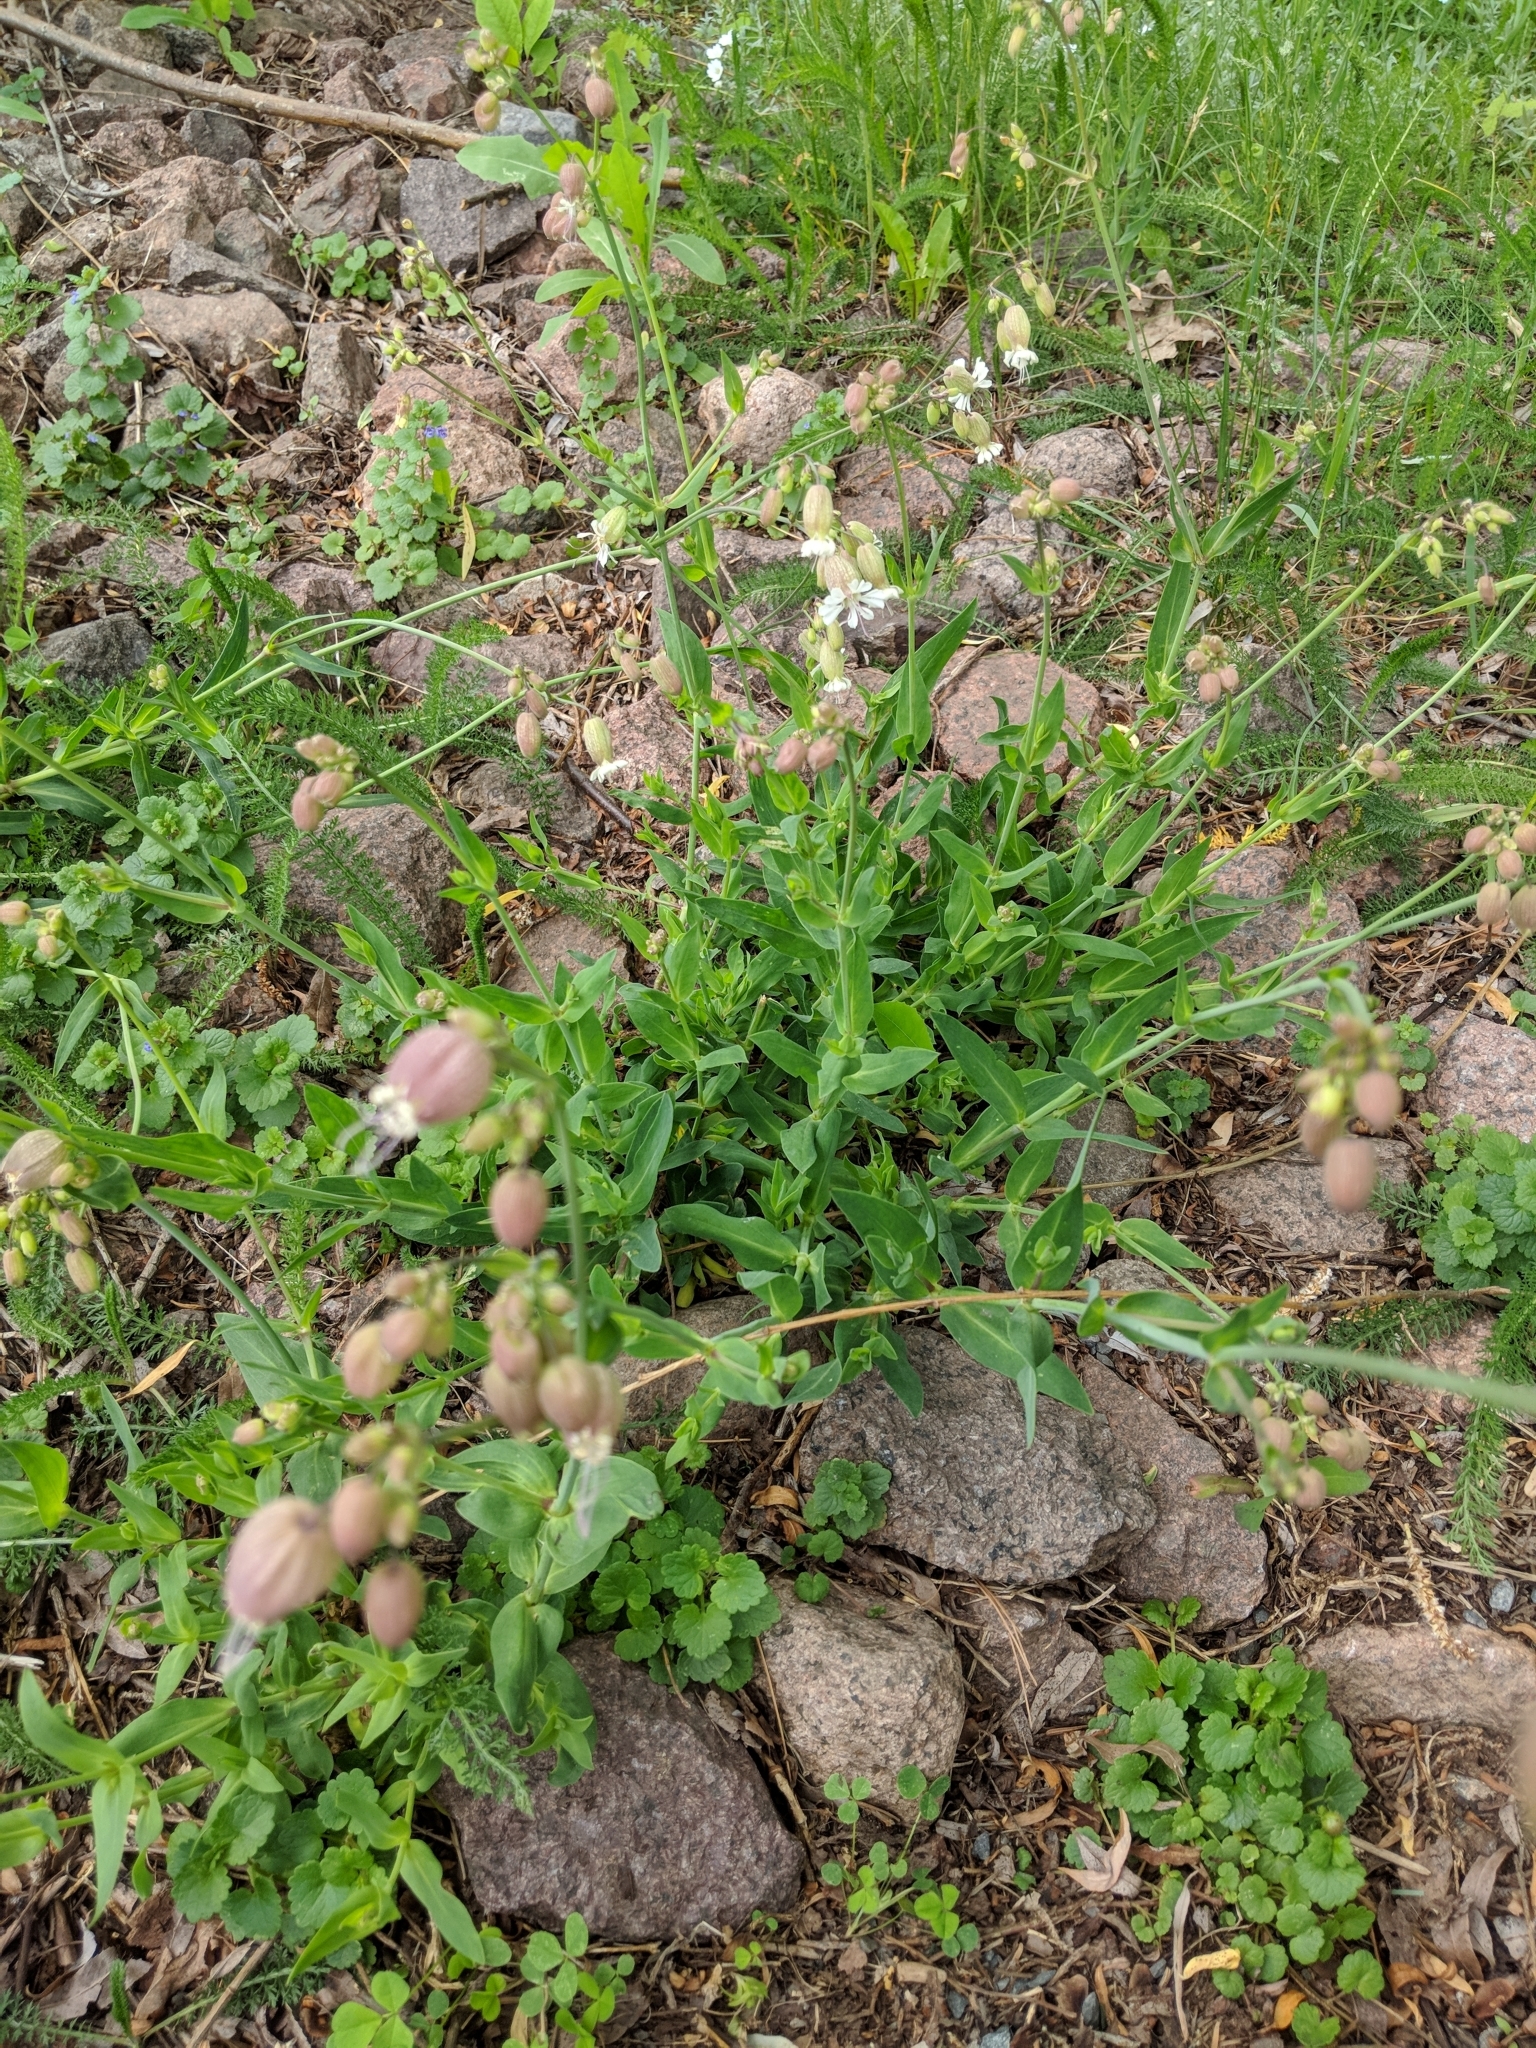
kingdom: Plantae
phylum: Tracheophyta
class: Magnoliopsida
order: Caryophyllales
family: Caryophyllaceae
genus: Silene
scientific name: Silene vulgaris
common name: Bladder campion
